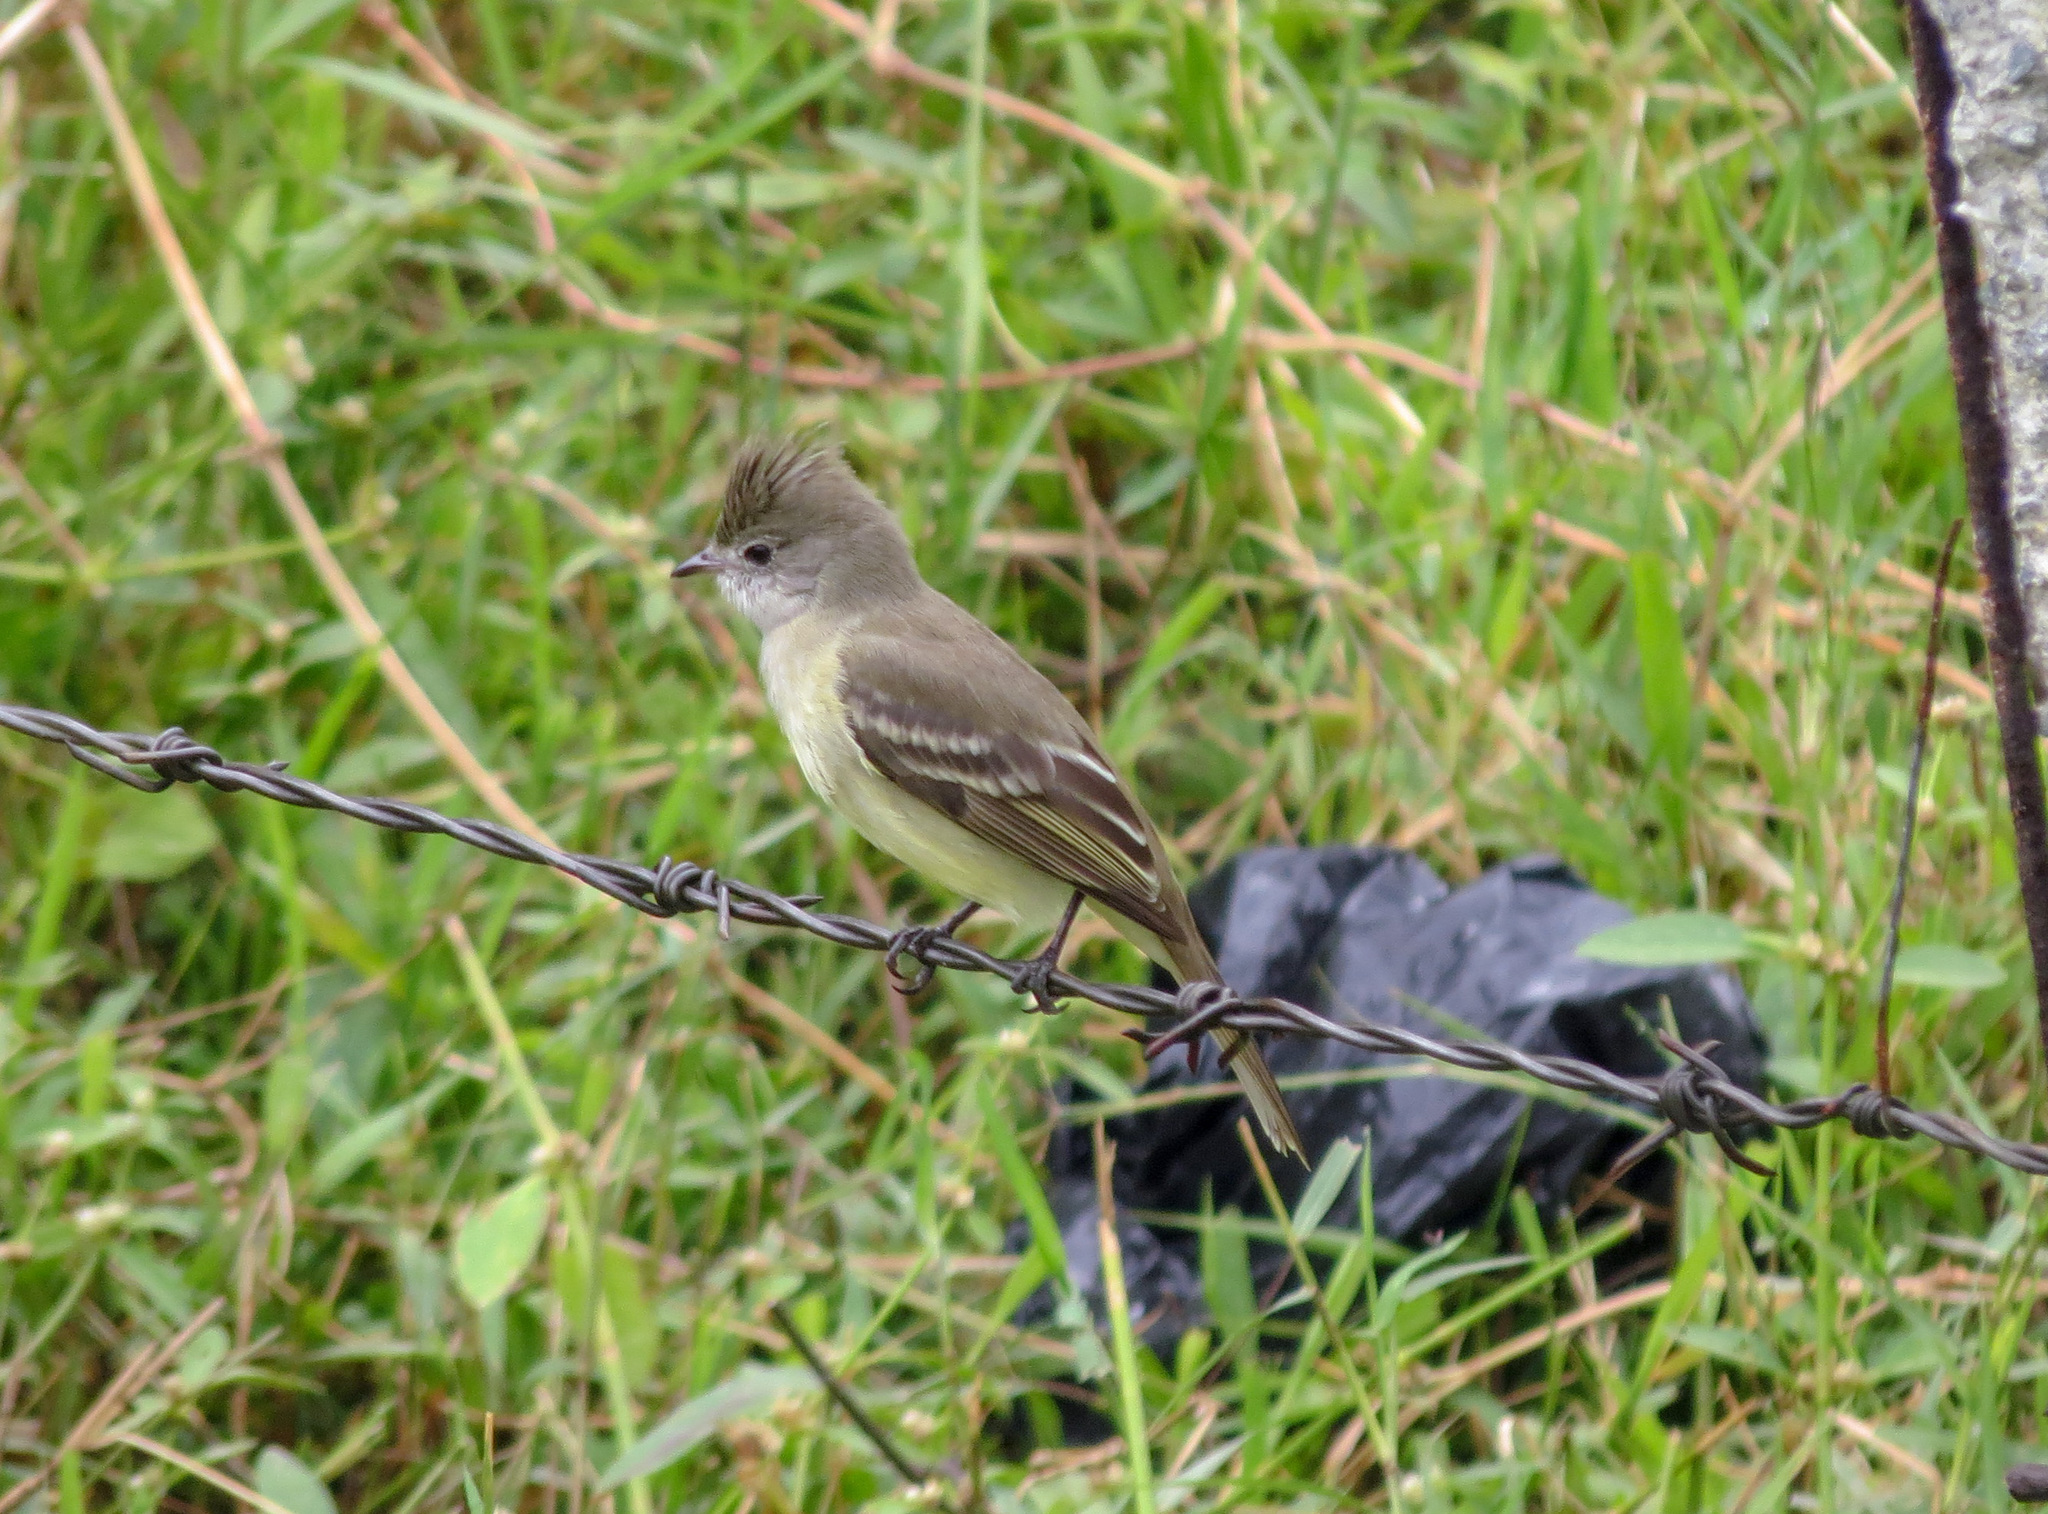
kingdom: Animalia
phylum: Chordata
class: Aves
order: Passeriformes
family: Tyrannidae
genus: Elaenia
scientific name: Elaenia flavogaster
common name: Yellow-bellied elaenia
